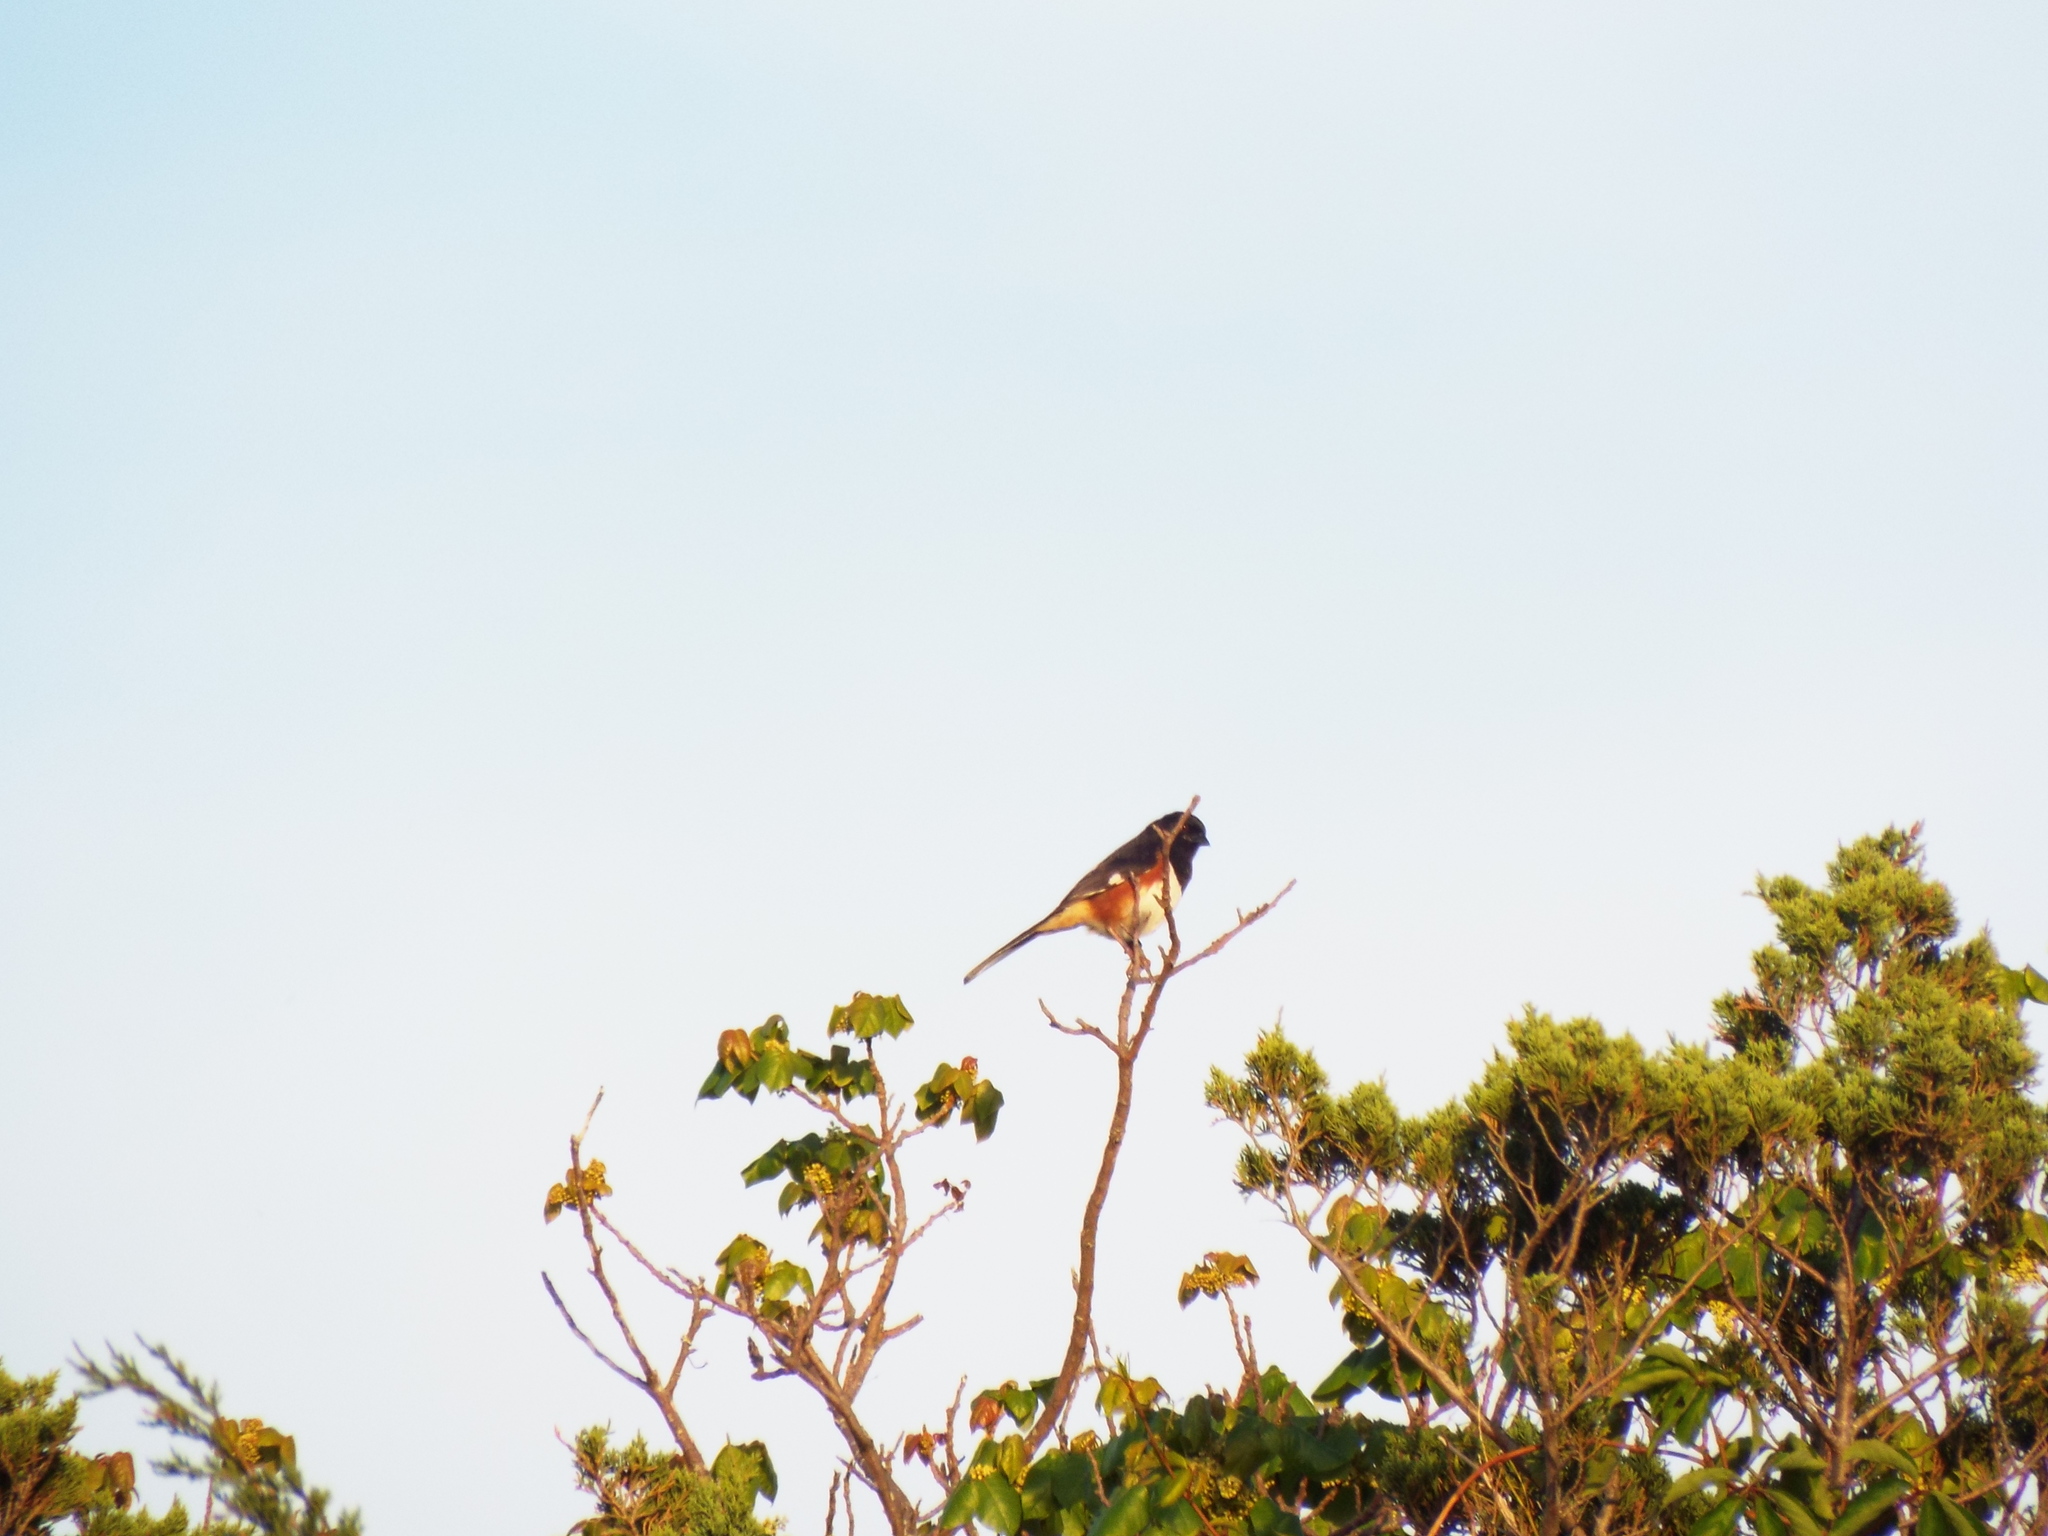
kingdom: Animalia
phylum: Chordata
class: Aves
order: Passeriformes
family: Passerellidae
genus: Pipilo
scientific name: Pipilo erythrophthalmus
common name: Eastern towhee
